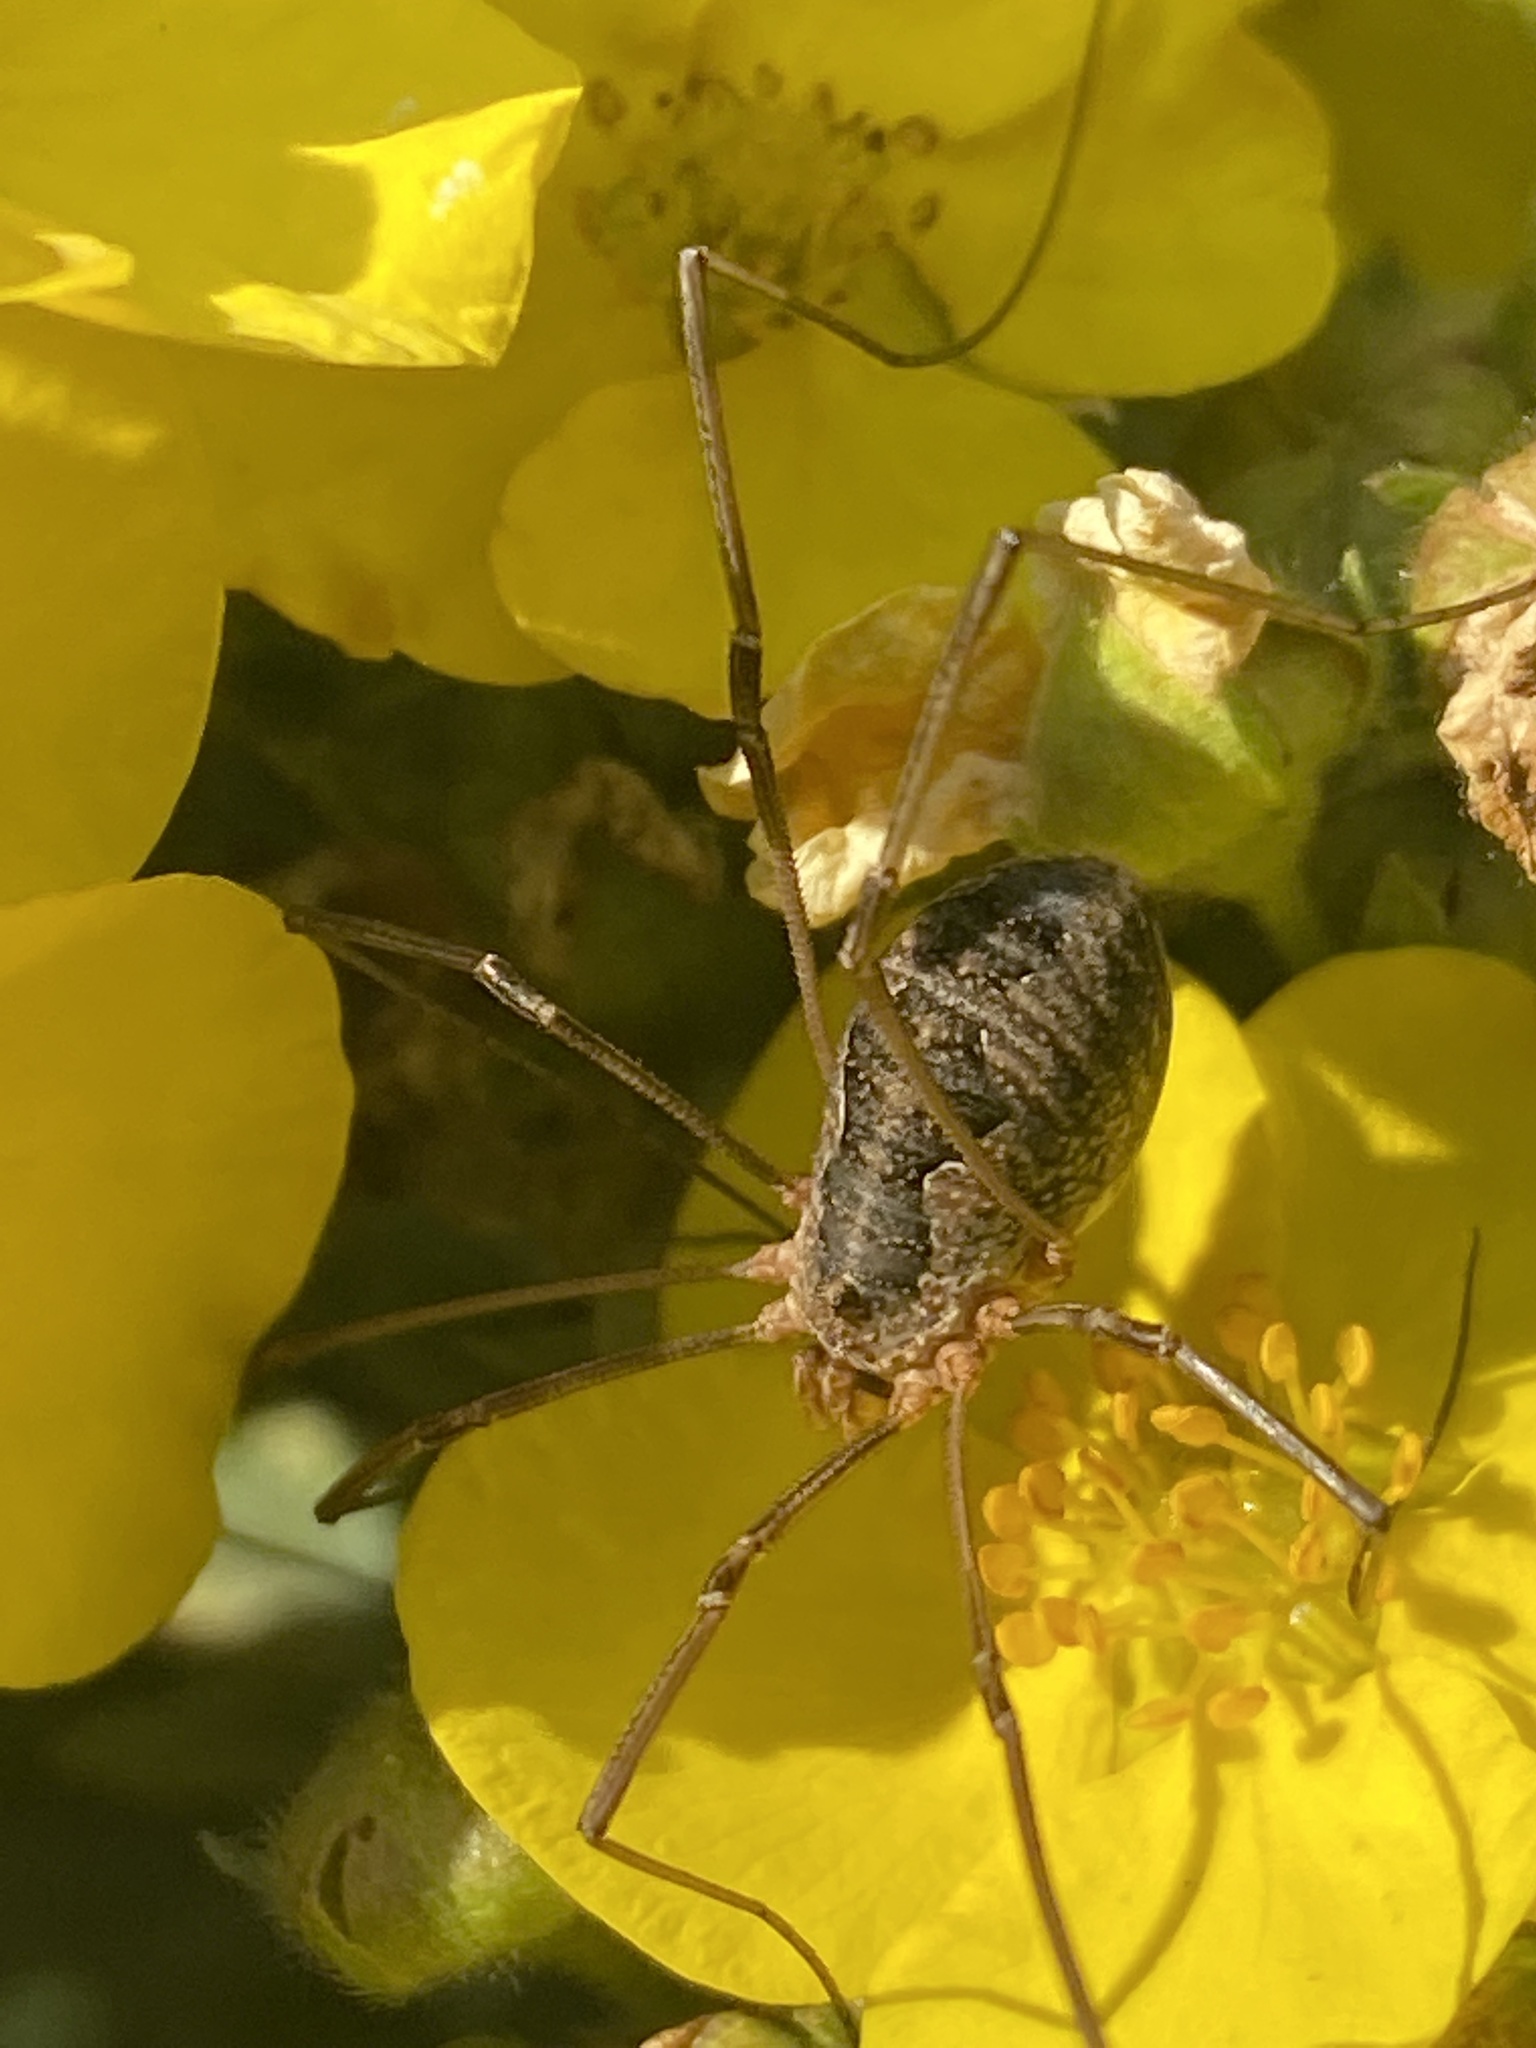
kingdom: Animalia
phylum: Arthropoda
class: Arachnida
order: Opiliones
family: Phalangiidae
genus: Phalangium
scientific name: Phalangium opilio
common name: Daddy longleg
